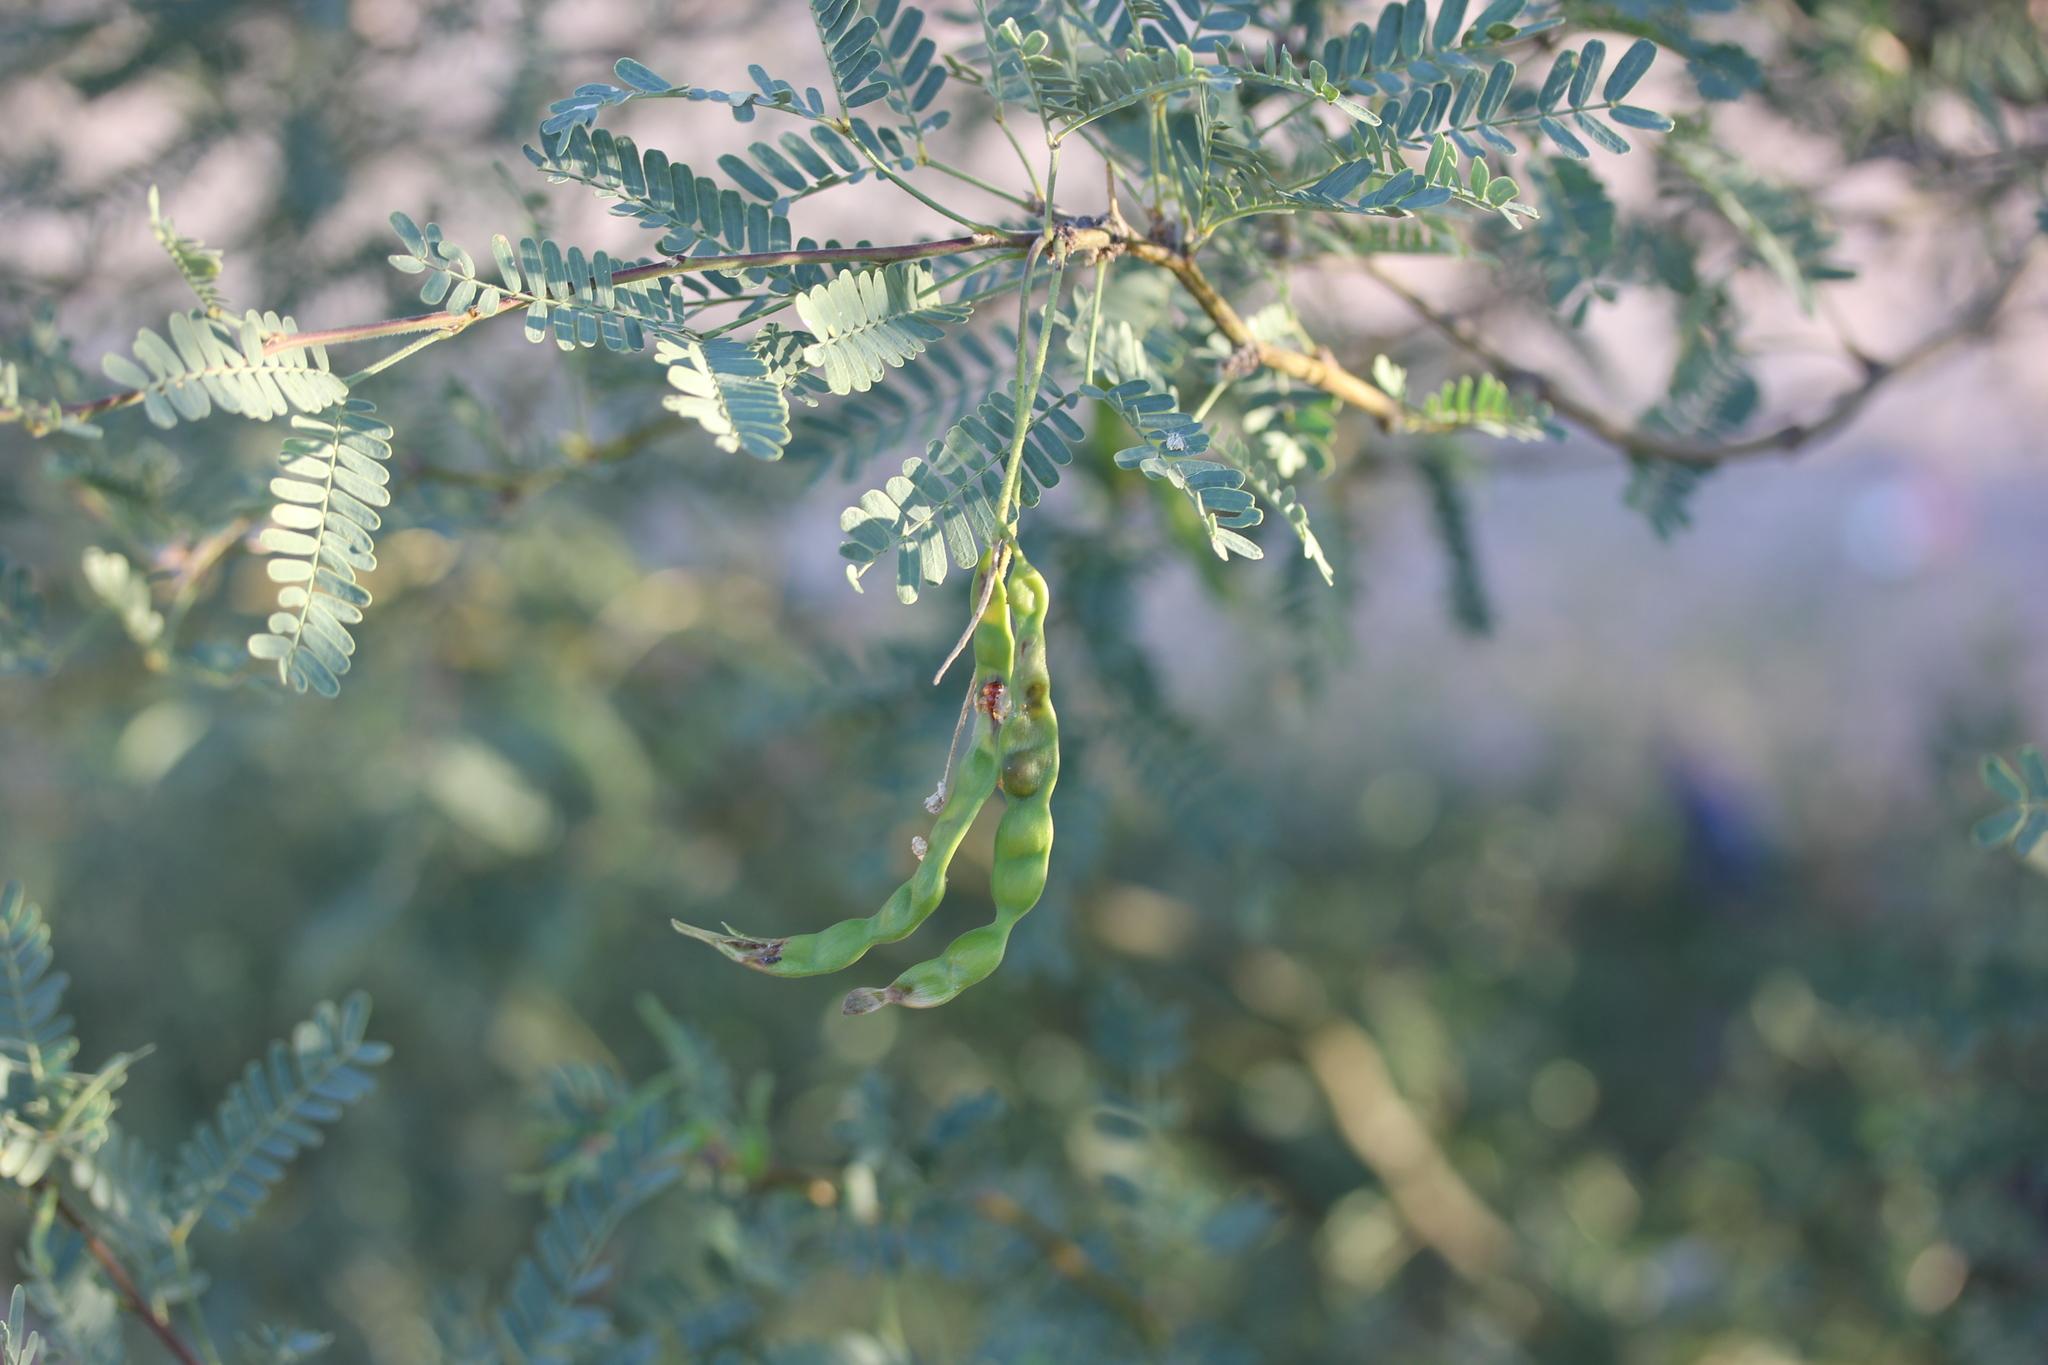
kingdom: Plantae
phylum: Tracheophyta
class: Magnoliopsida
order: Fabales
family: Fabaceae
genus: Prosopis
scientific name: Prosopis velutina
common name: Velvet mesquite
